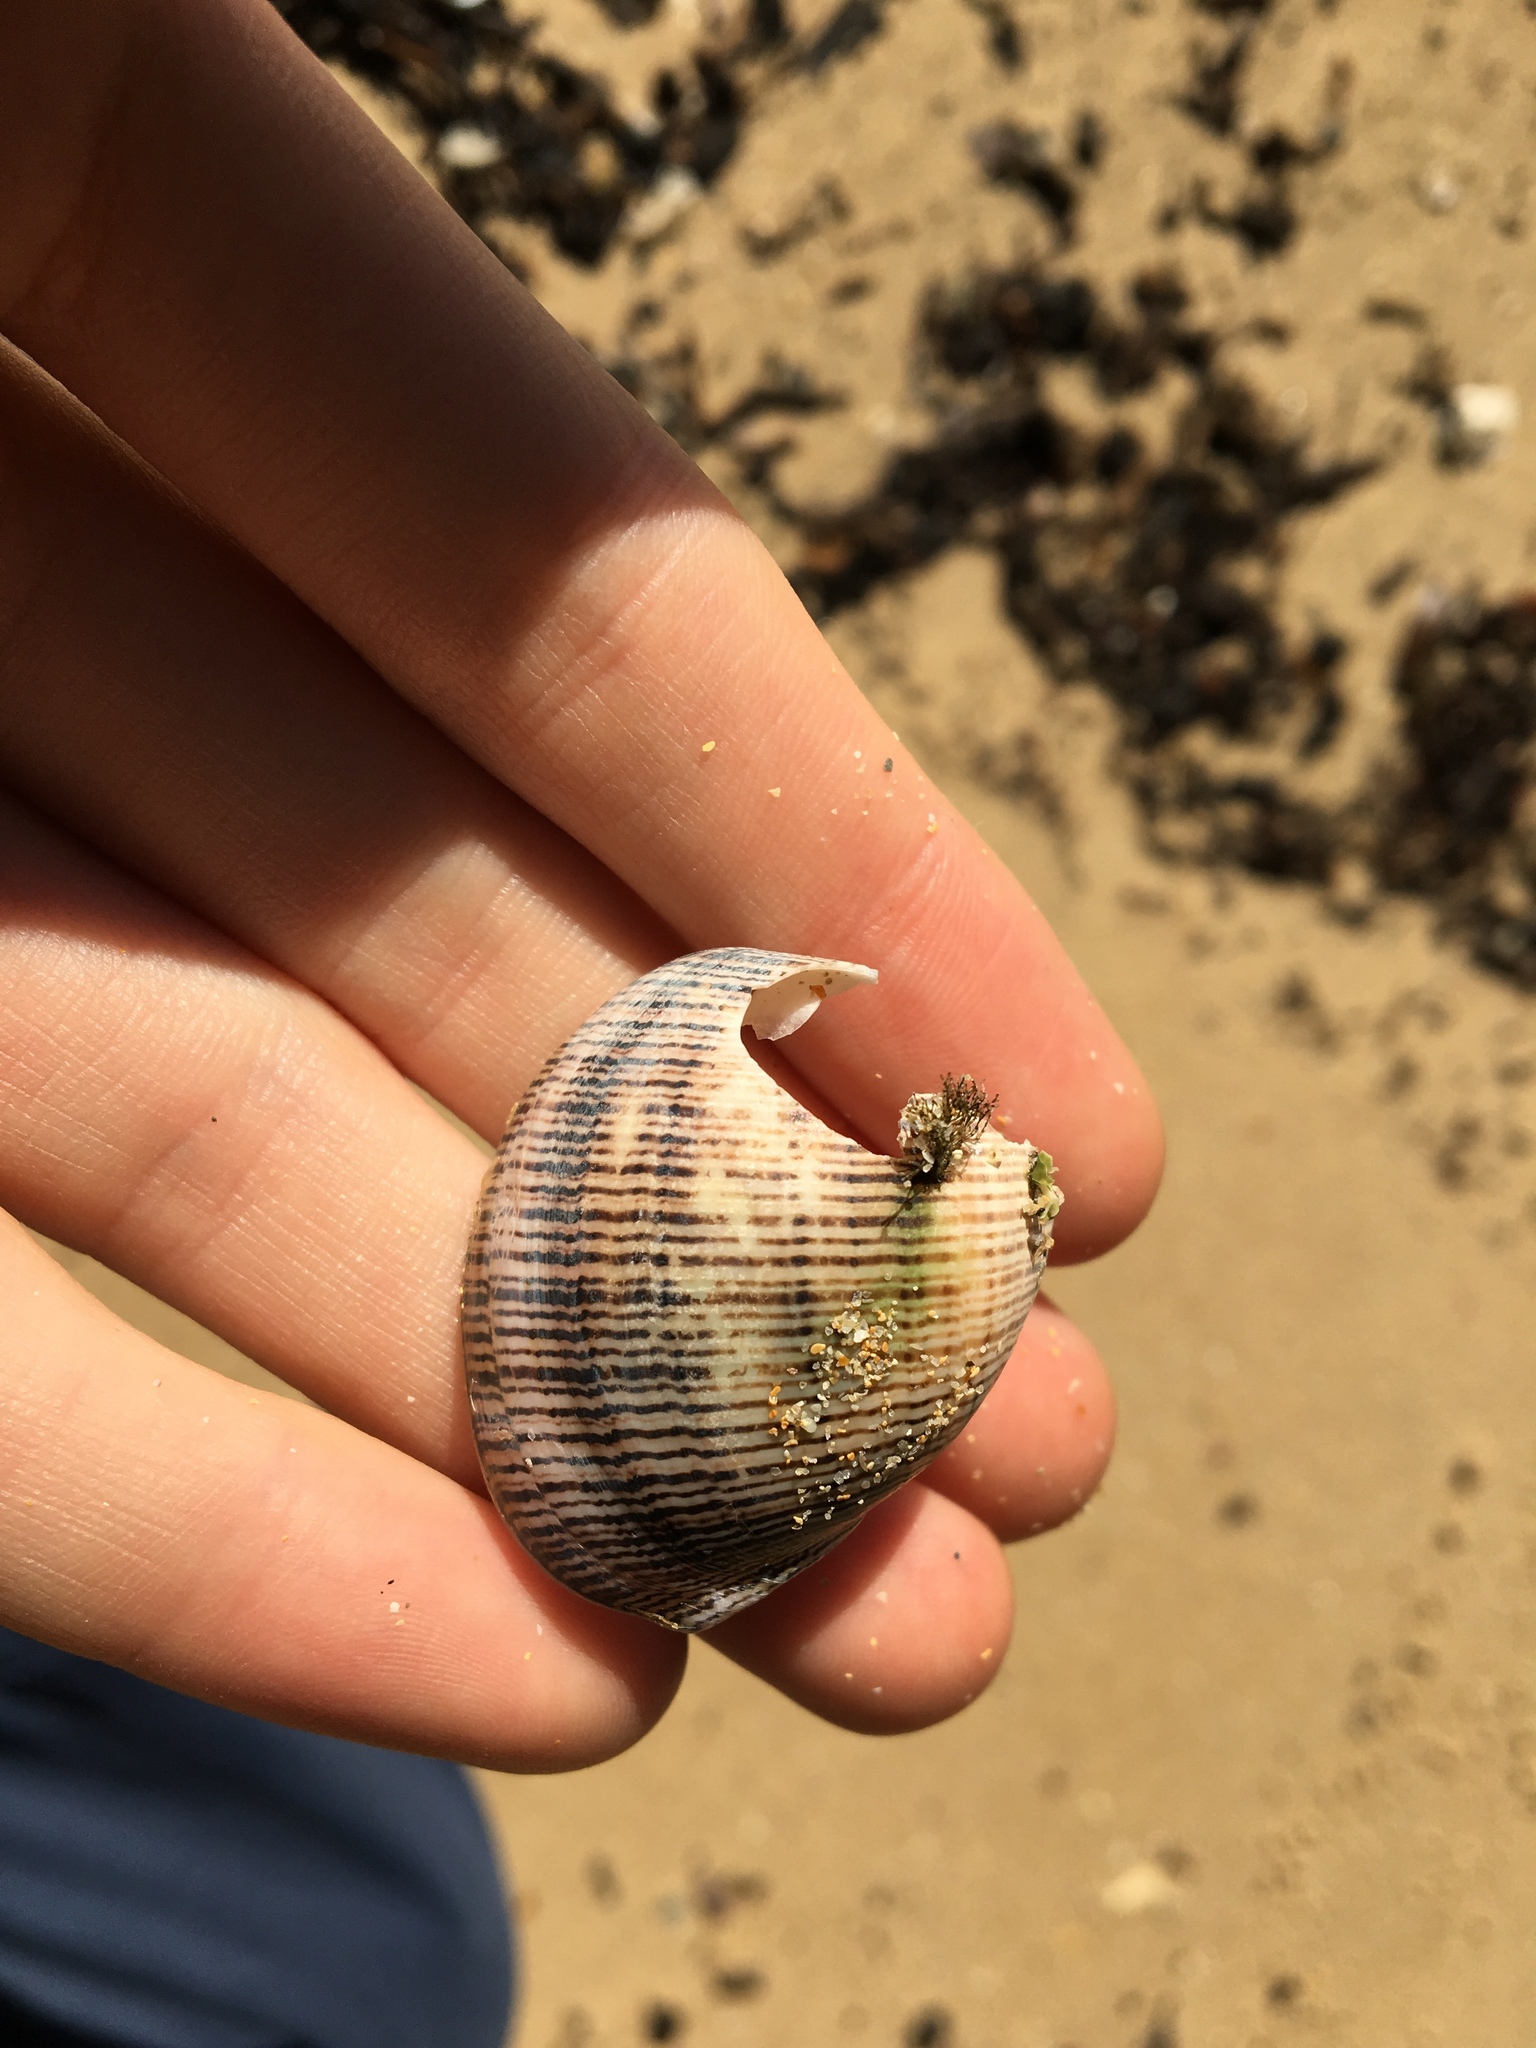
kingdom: Animalia
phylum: Mollusca
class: Gastropoda
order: Cephalaspidea
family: Aplustridae
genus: Hydatina
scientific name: Hydatina physis
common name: Brown-line paperbubble
